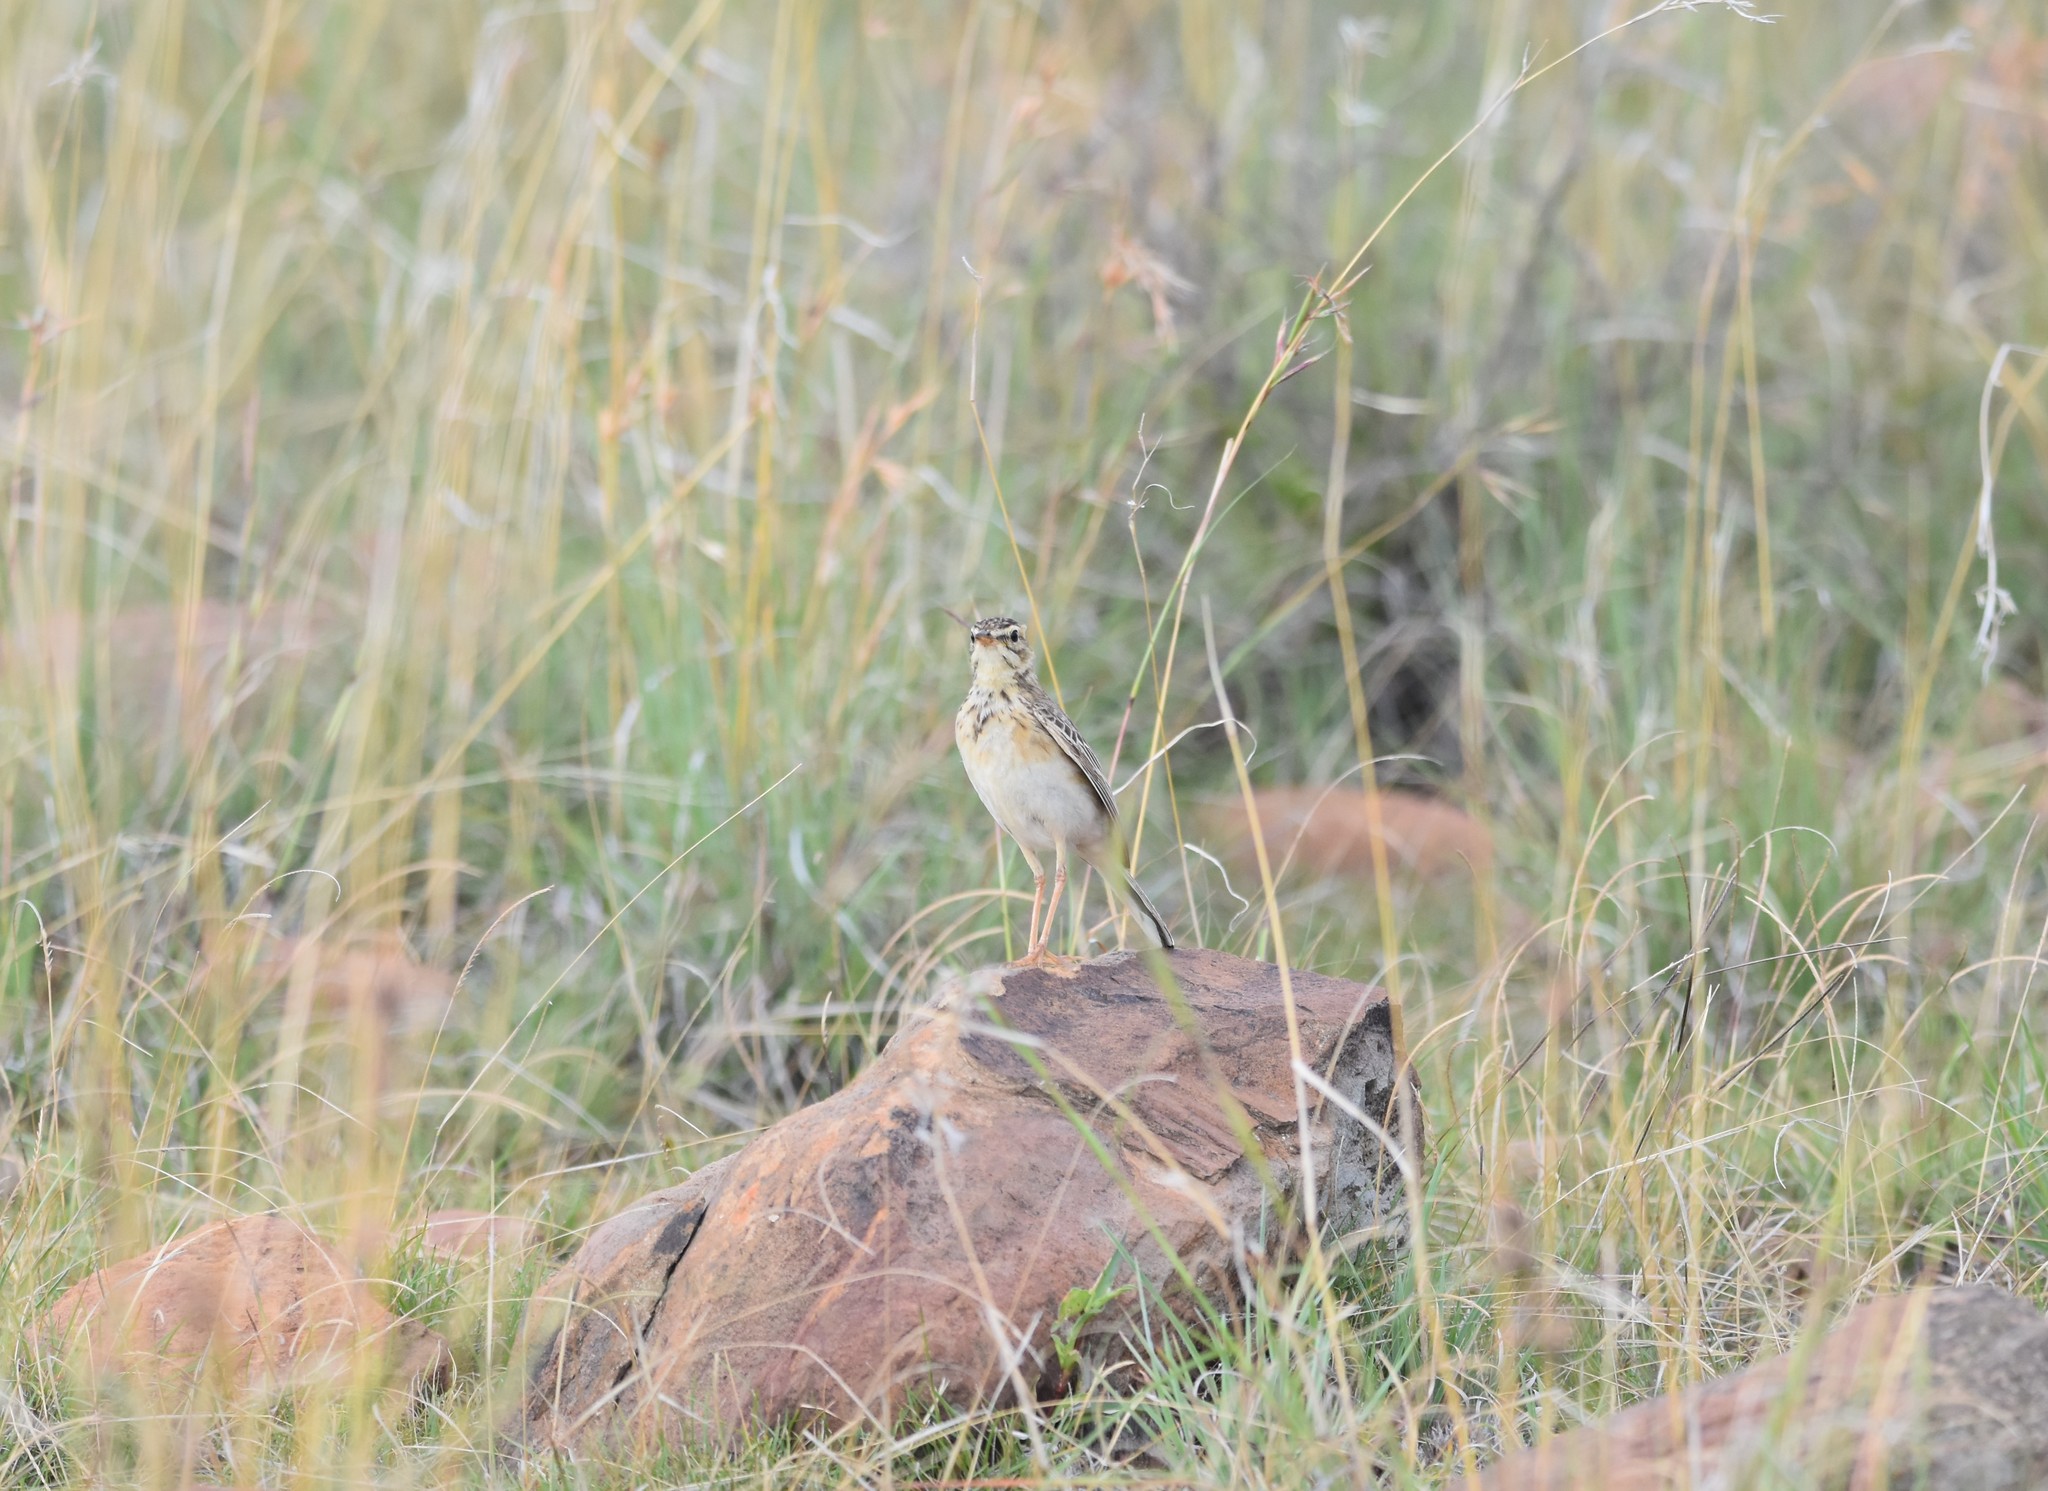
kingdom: Animalia
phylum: Chordata
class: Aves
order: Passeriformes
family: Motacillidae
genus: Anthus
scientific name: Anthus cinnamomeus
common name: African pipit
